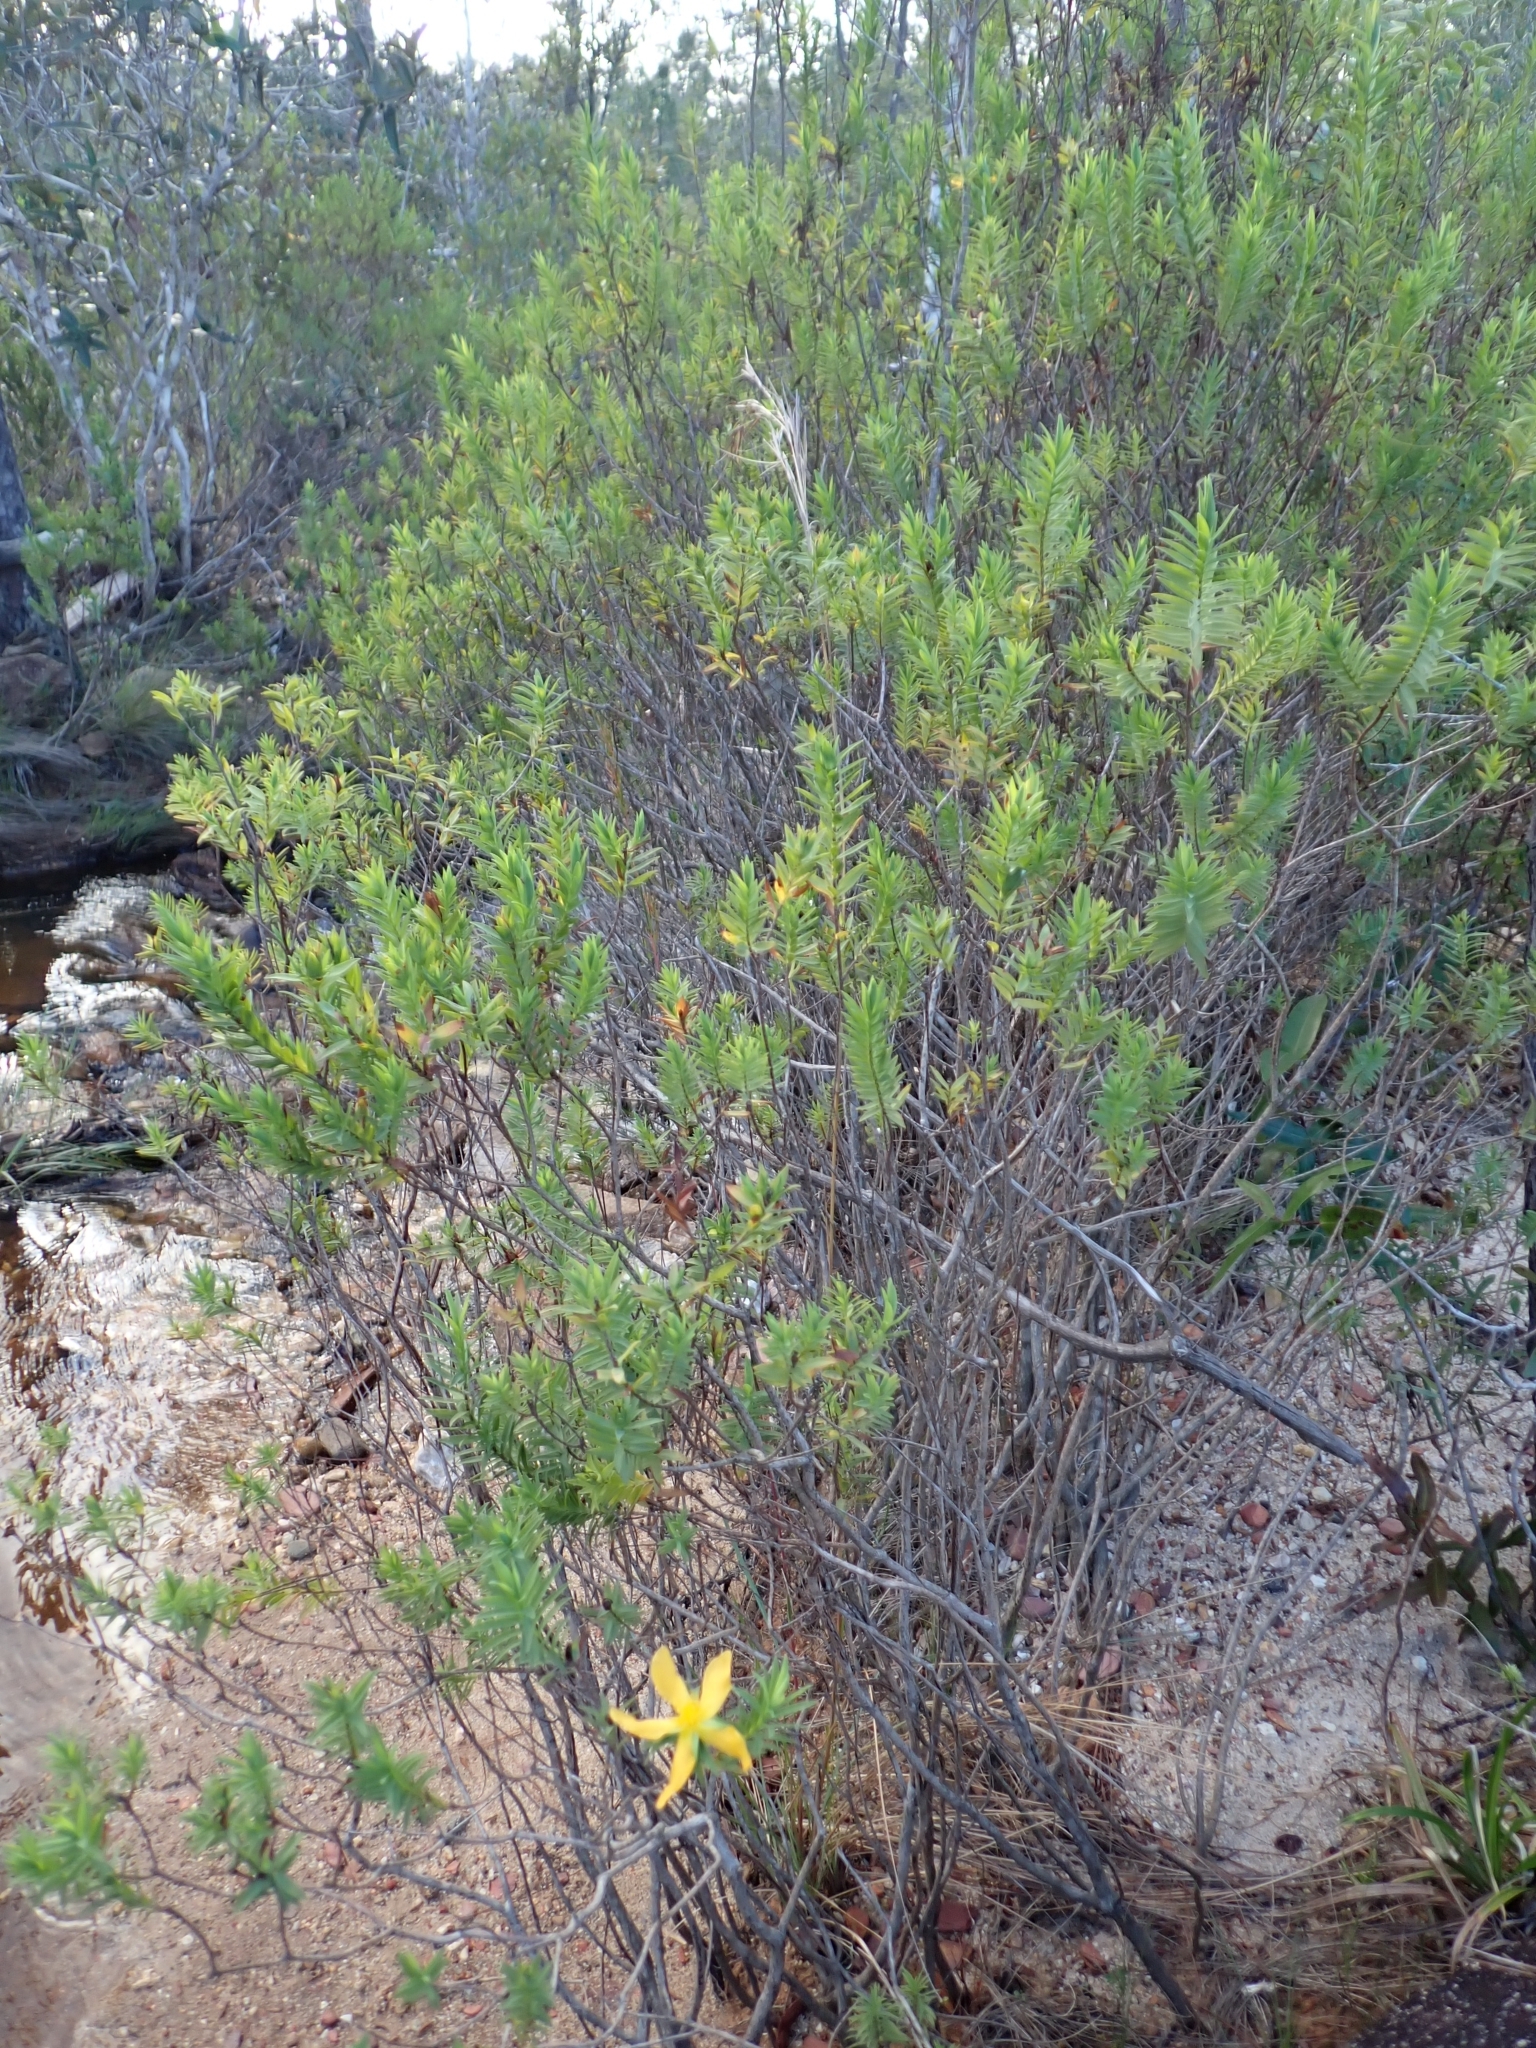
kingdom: Plantae
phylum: Tracheophyta
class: Magnoliopsida
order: Malpighiales
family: Hypericaceae
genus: Hypericum
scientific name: Hypericum styphelioides
